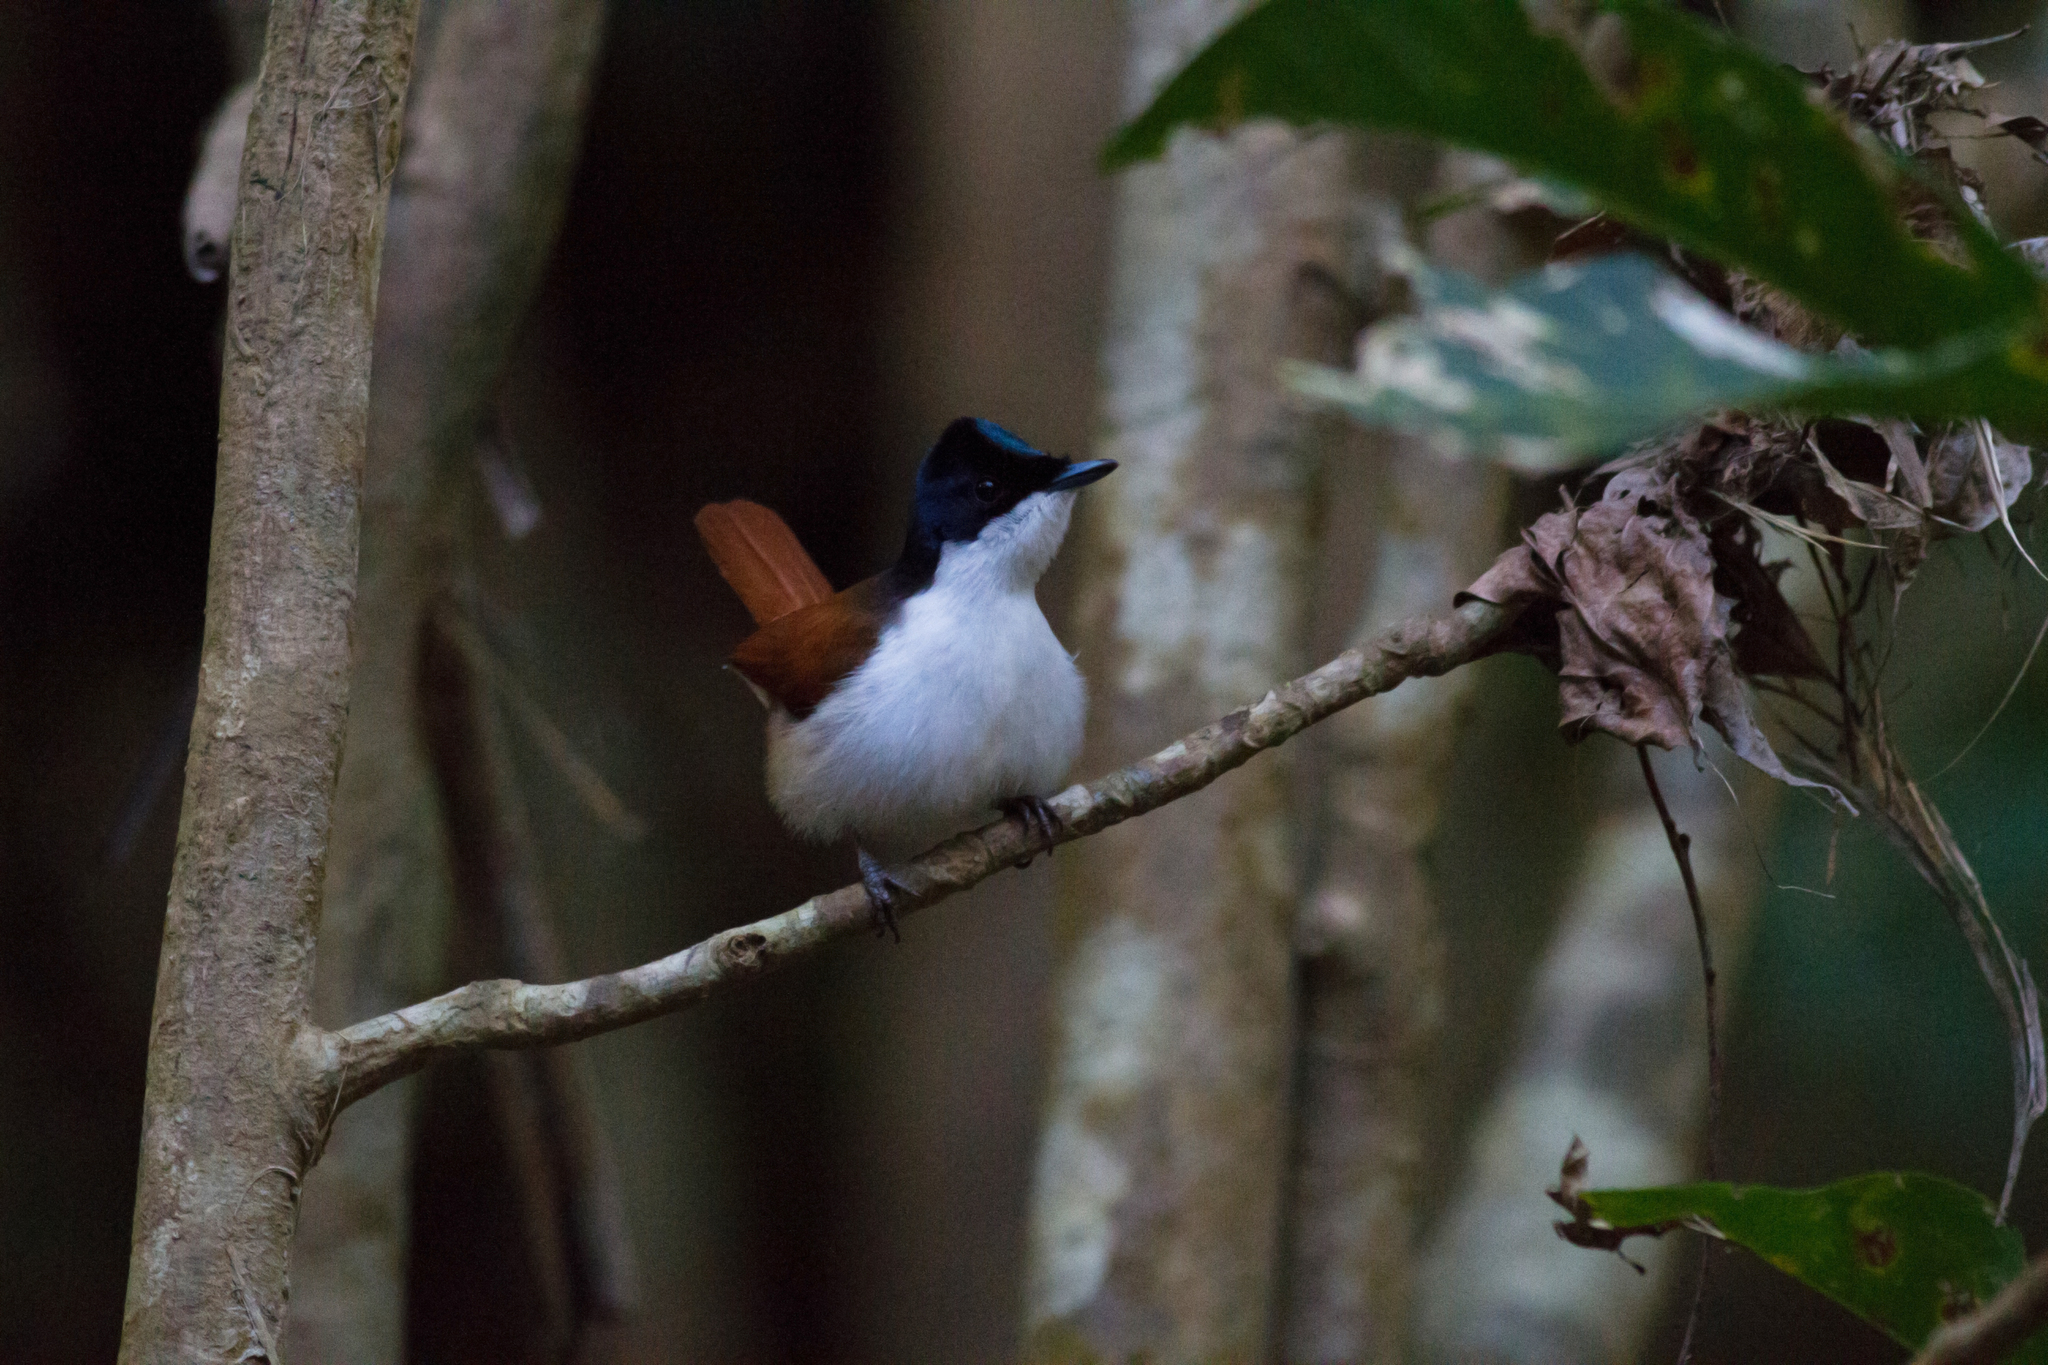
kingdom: Animalia
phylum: Chordata
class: Aves
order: Passeriformes
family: Monarchidae
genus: Myiagra
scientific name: Myiagra alecto
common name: Shining flycatcher
